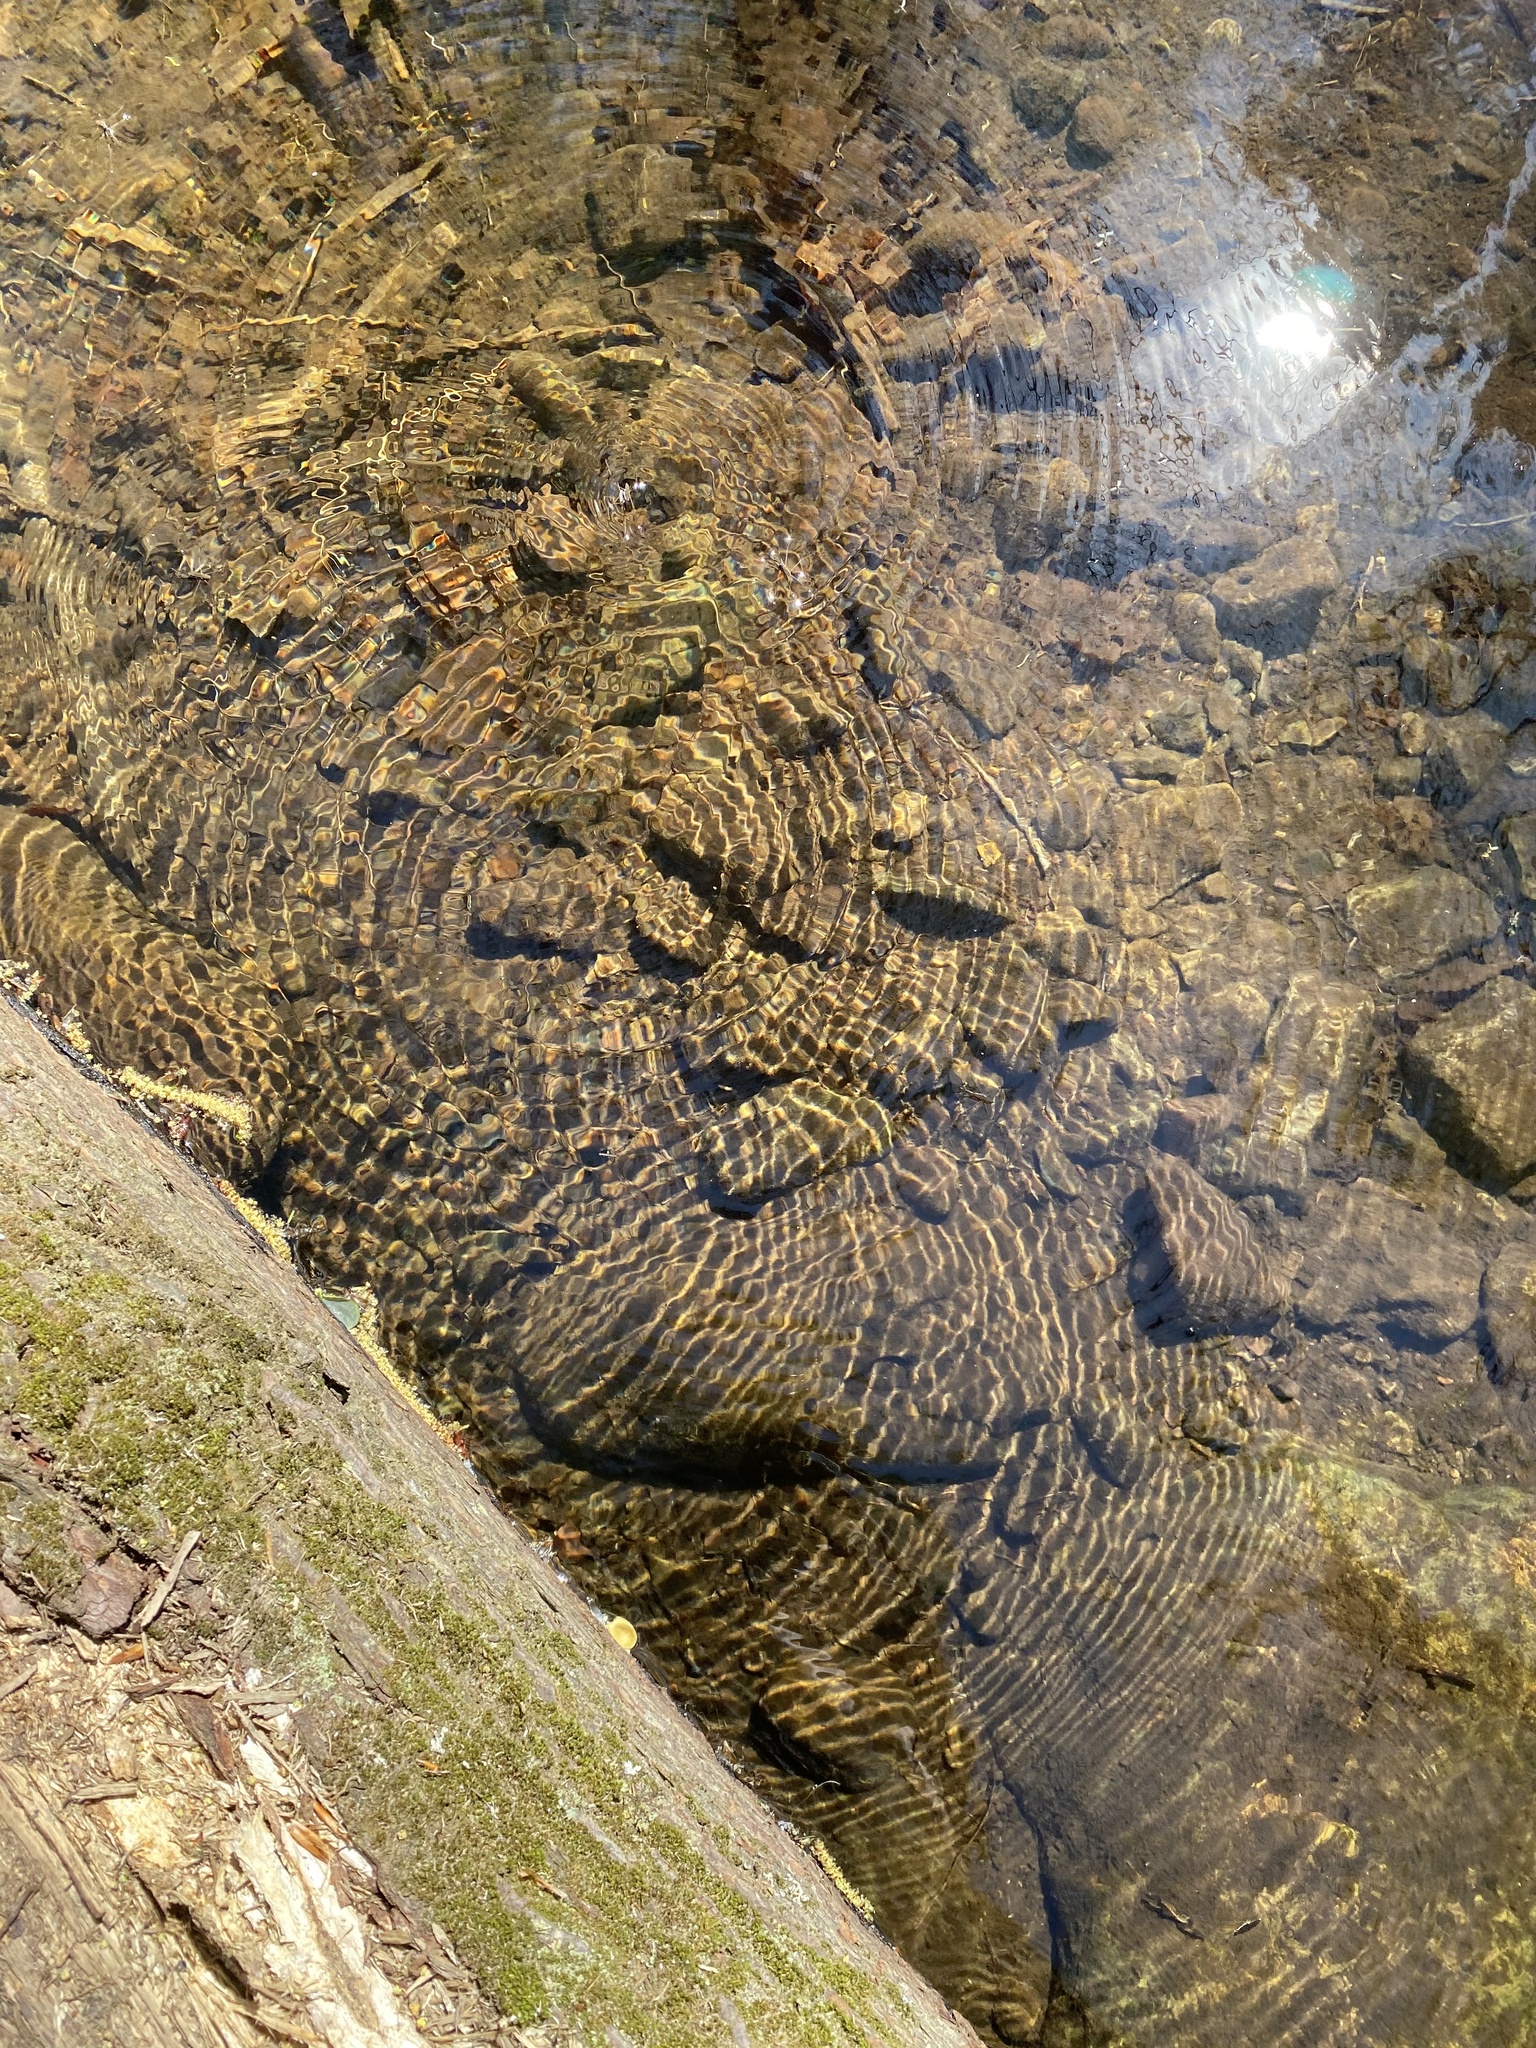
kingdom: Animalia
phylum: Arthropoda
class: Insecta
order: Hemiptera
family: Gerridae
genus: Aquarius
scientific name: Aquarius remigis
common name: Common water strider
